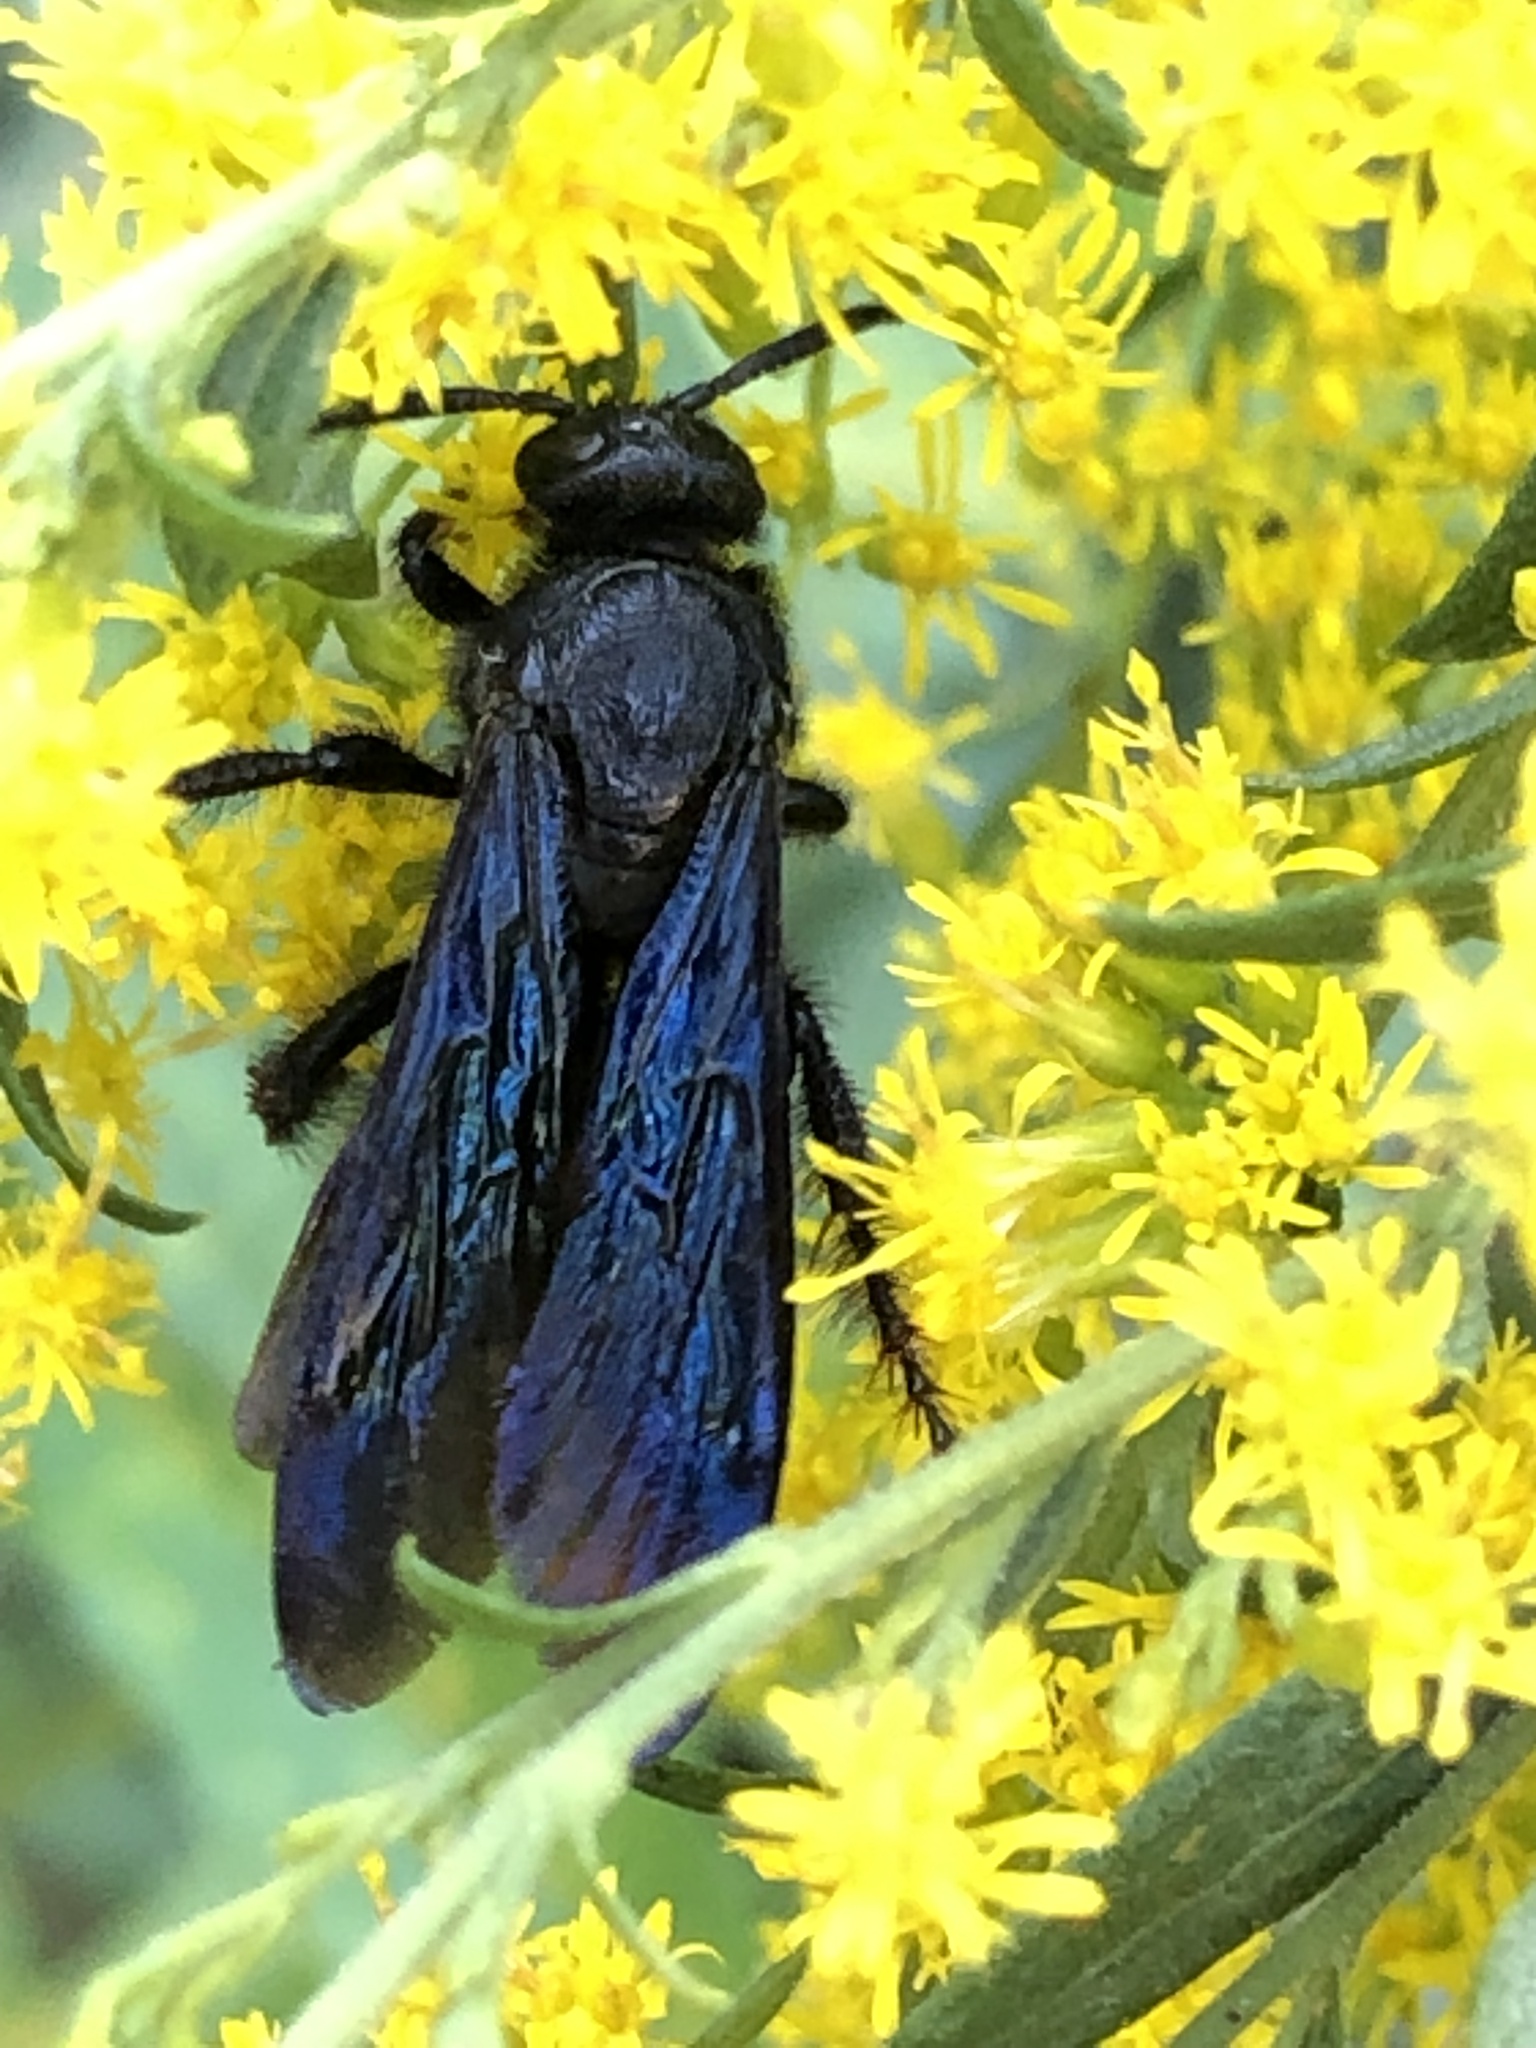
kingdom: Animalia
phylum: Arthropoda
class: Insecta
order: Hymenoptera
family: Scoliidae
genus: Scolia
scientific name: Scolia dubia
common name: Blue-winged scoliid wasp
